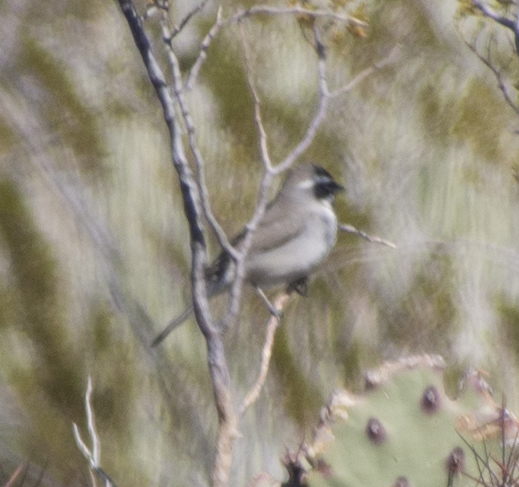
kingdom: Animalia
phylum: Chordata
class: Aves
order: Passeriformes
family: Passerellidae
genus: Amphispiza
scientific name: Amphispiza bilineata
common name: Black-throated sparrow
